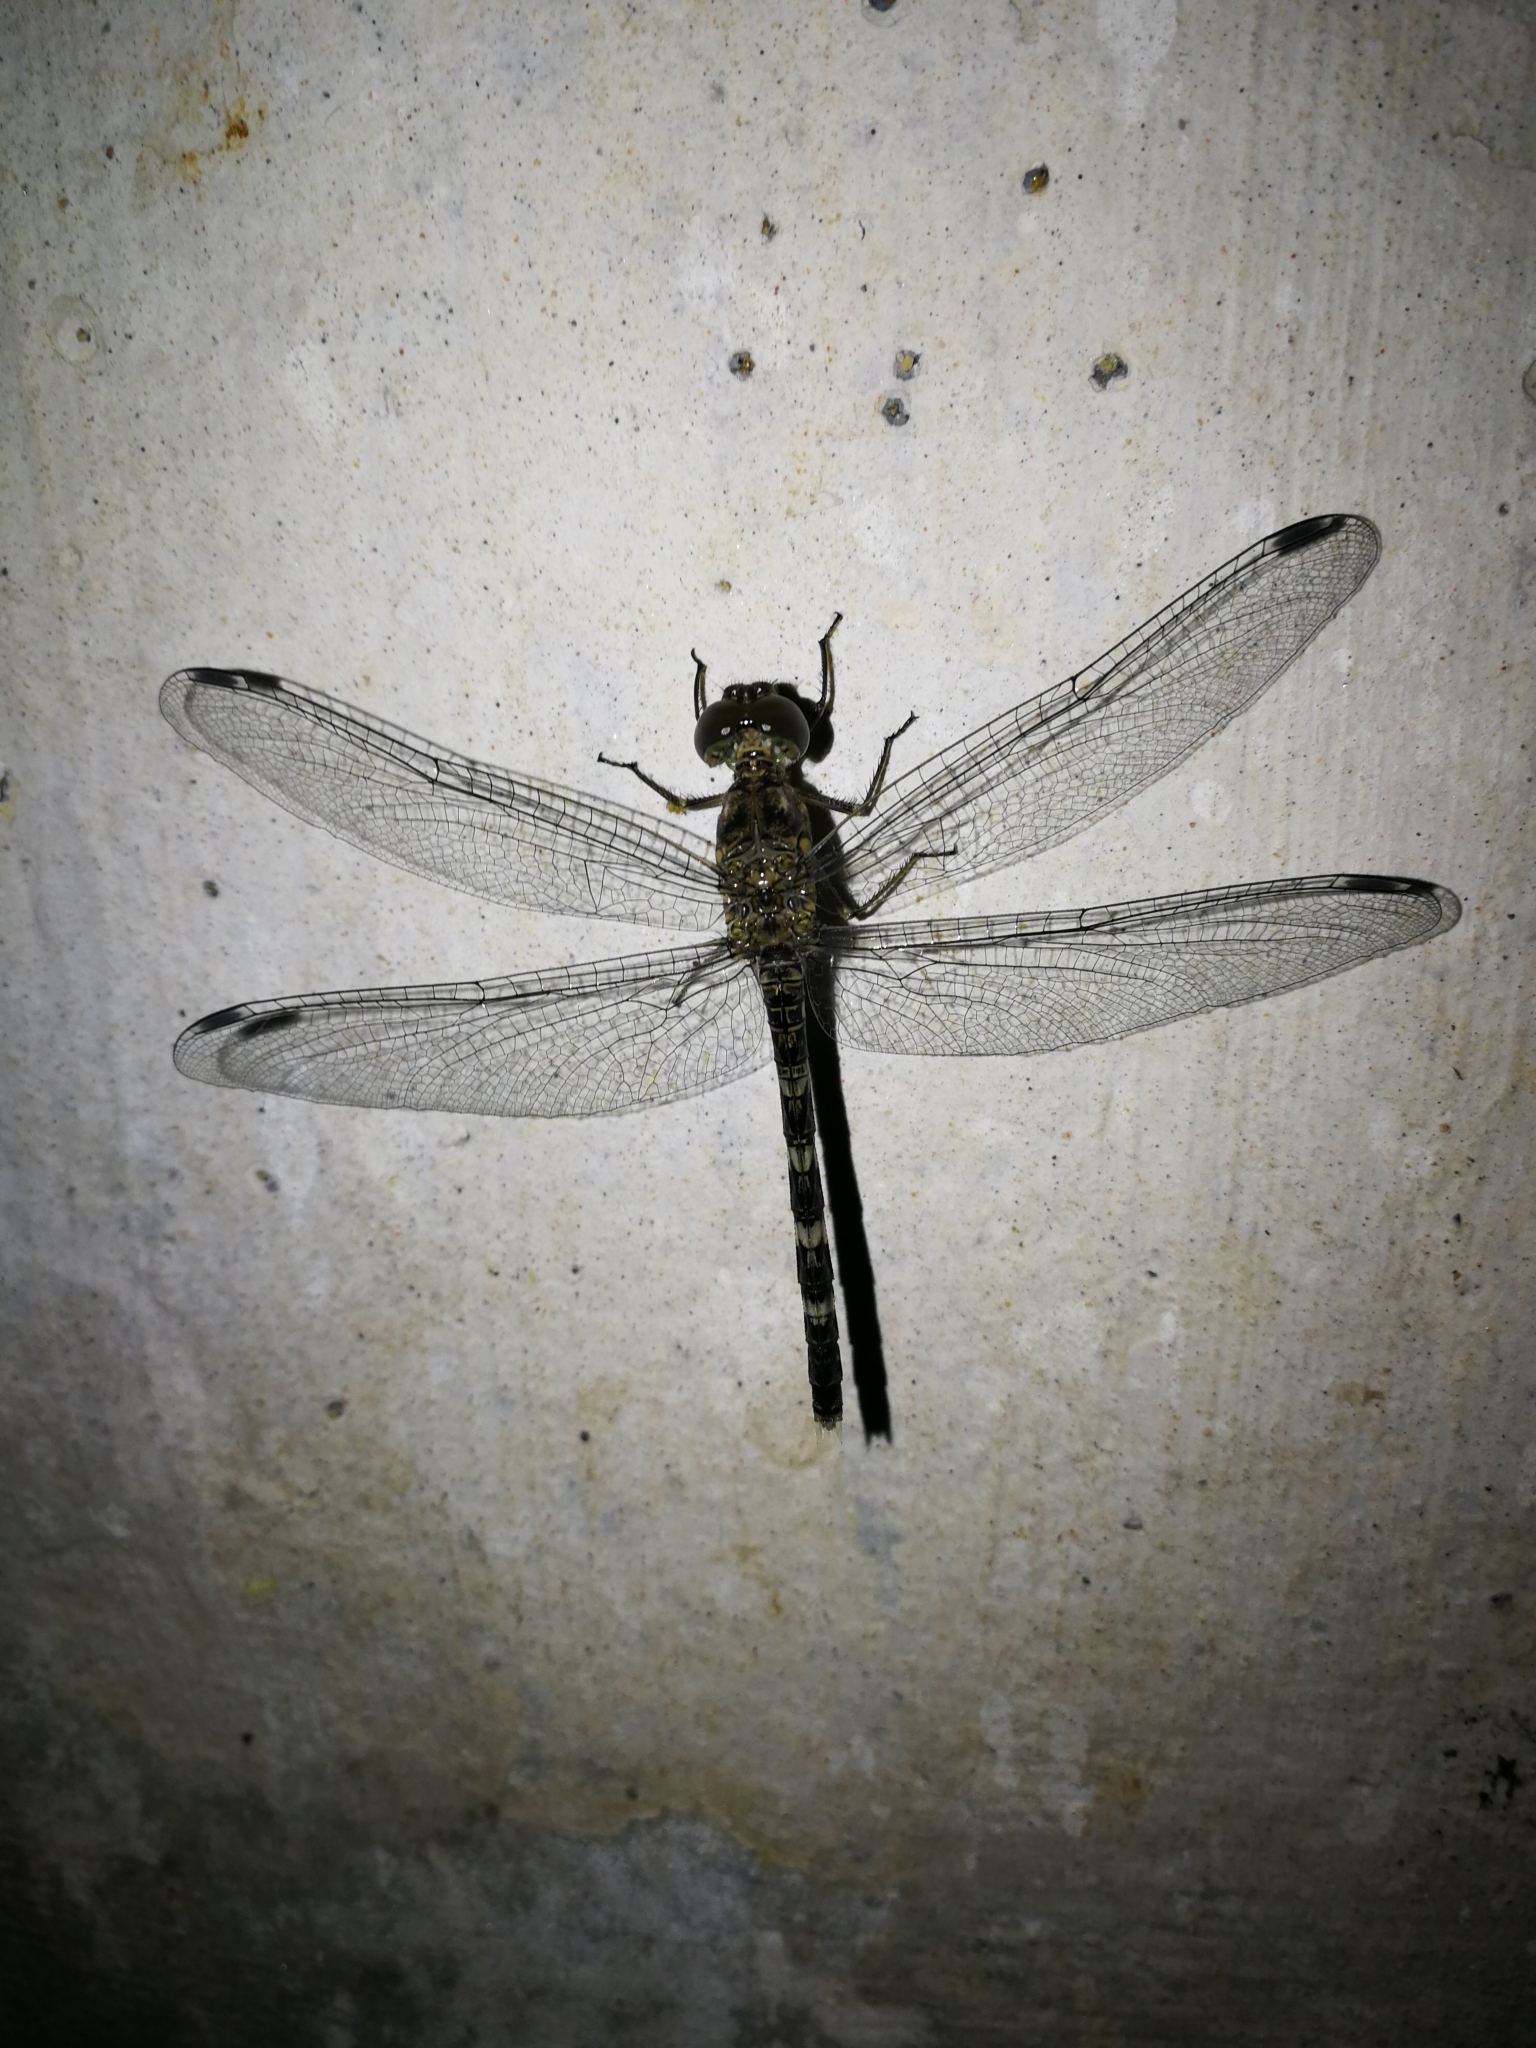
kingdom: Animalia
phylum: Arthropoda
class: Insecta
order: Odonata
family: Libellulidae
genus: Bradinopyga
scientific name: Bradinopyga geminata
